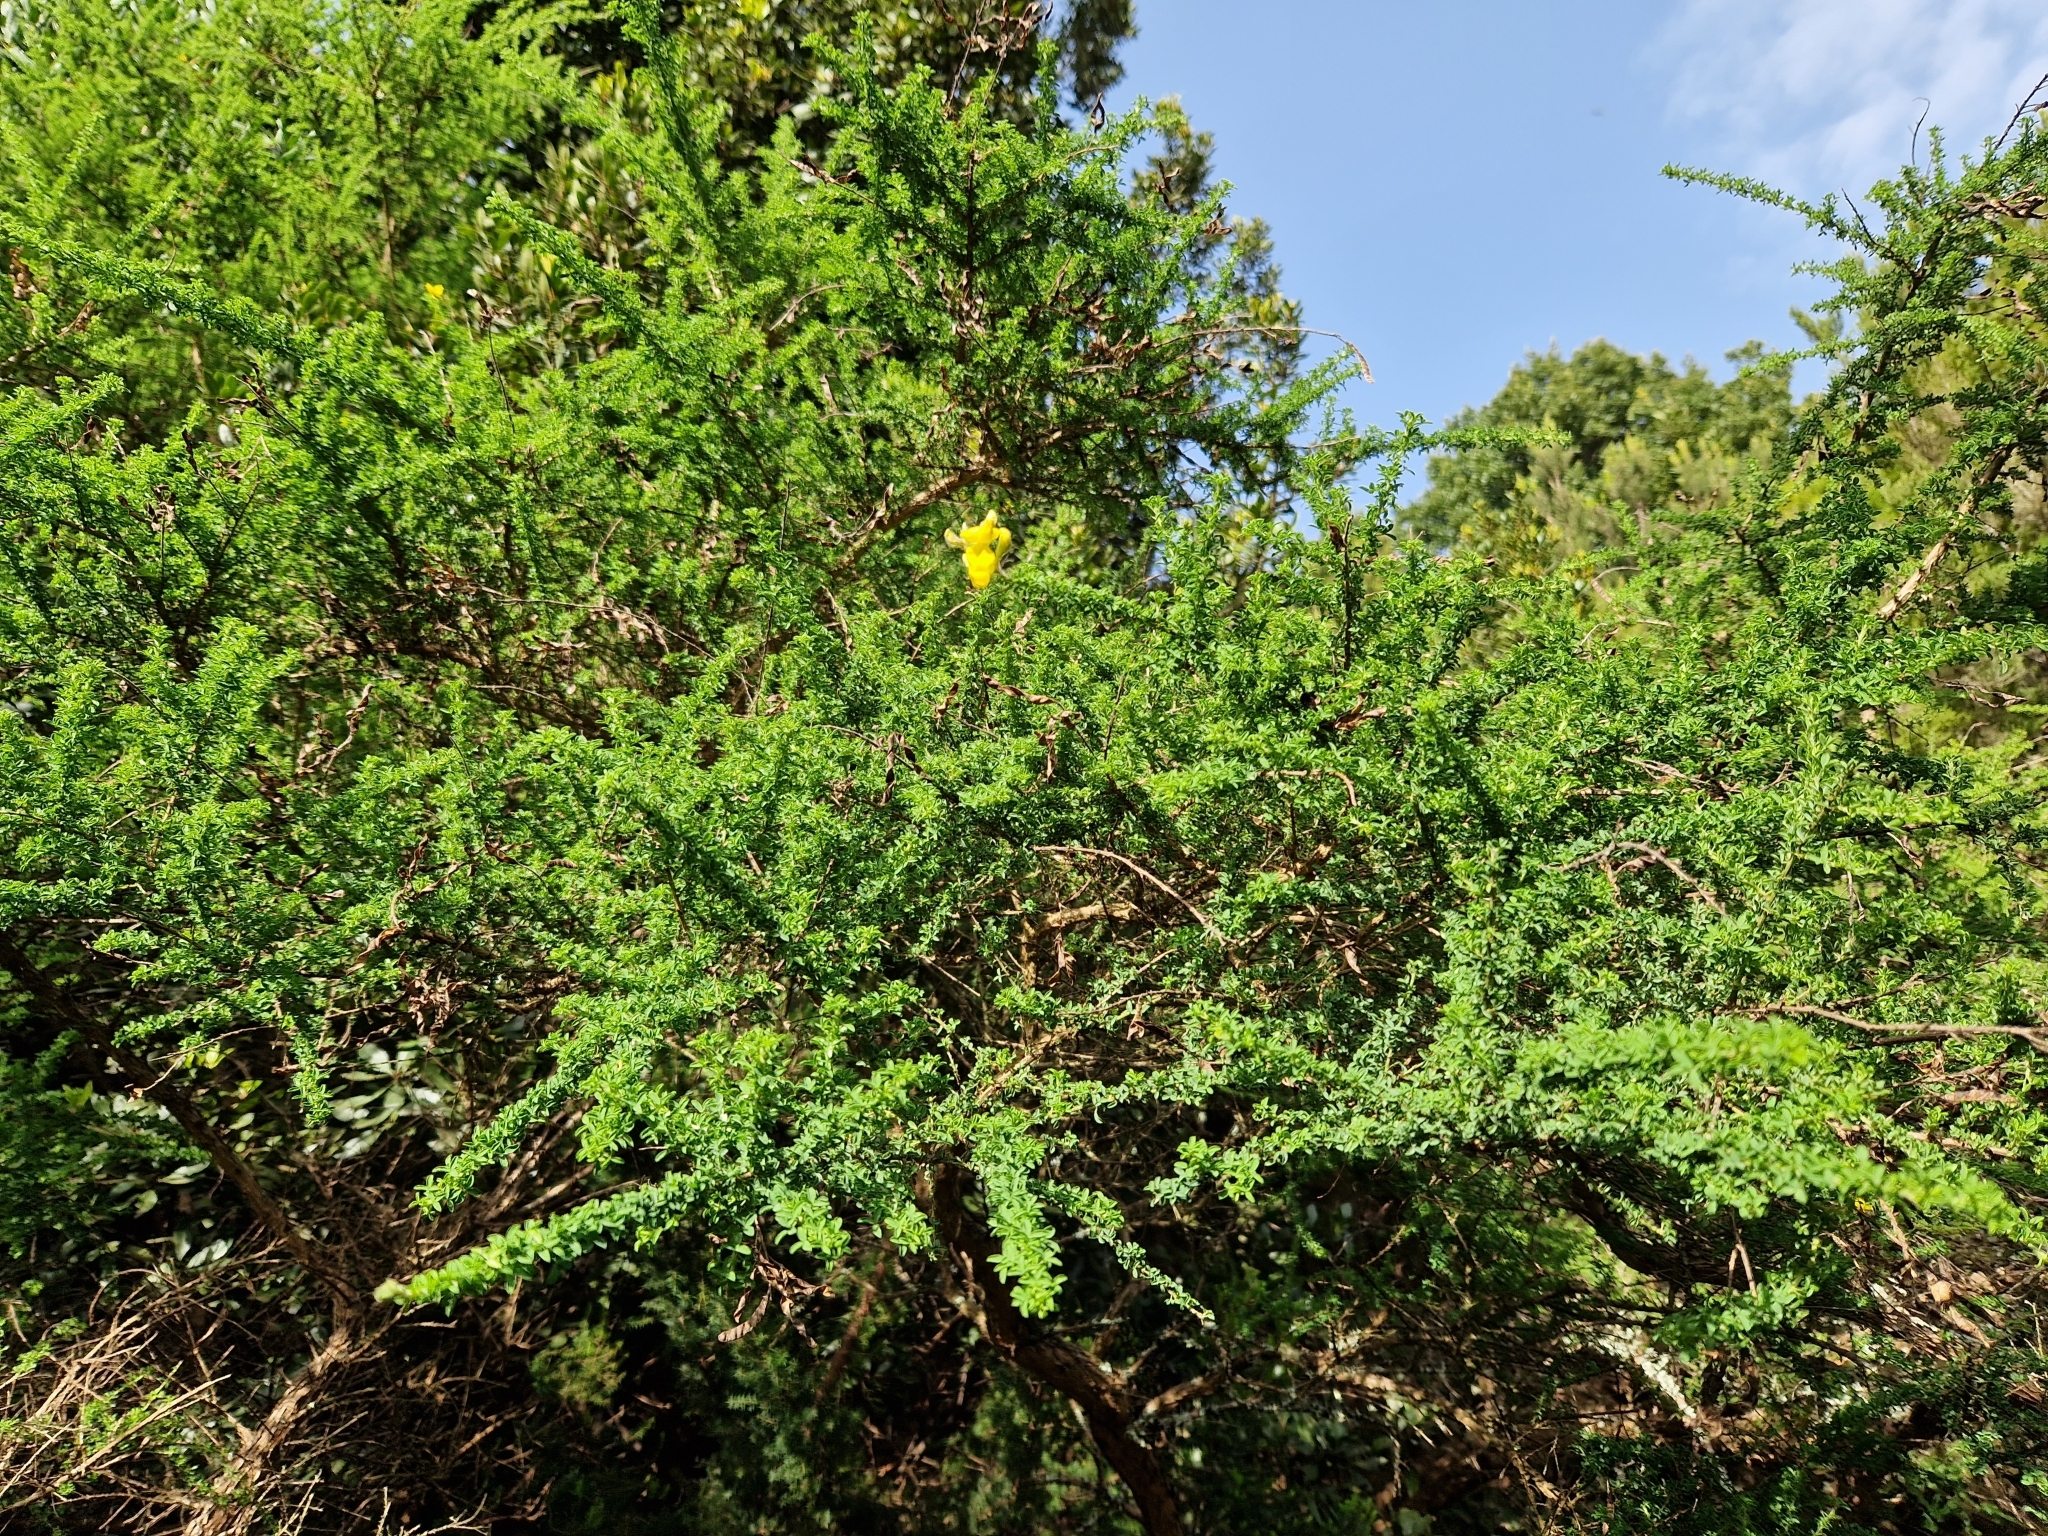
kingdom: Plantae
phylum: Tracheophyta
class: Magnoliopsida
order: Fabales
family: Fabaceae
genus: Adenocarpus
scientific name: Adenocarpus foliolosus
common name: Canary island flatpod
